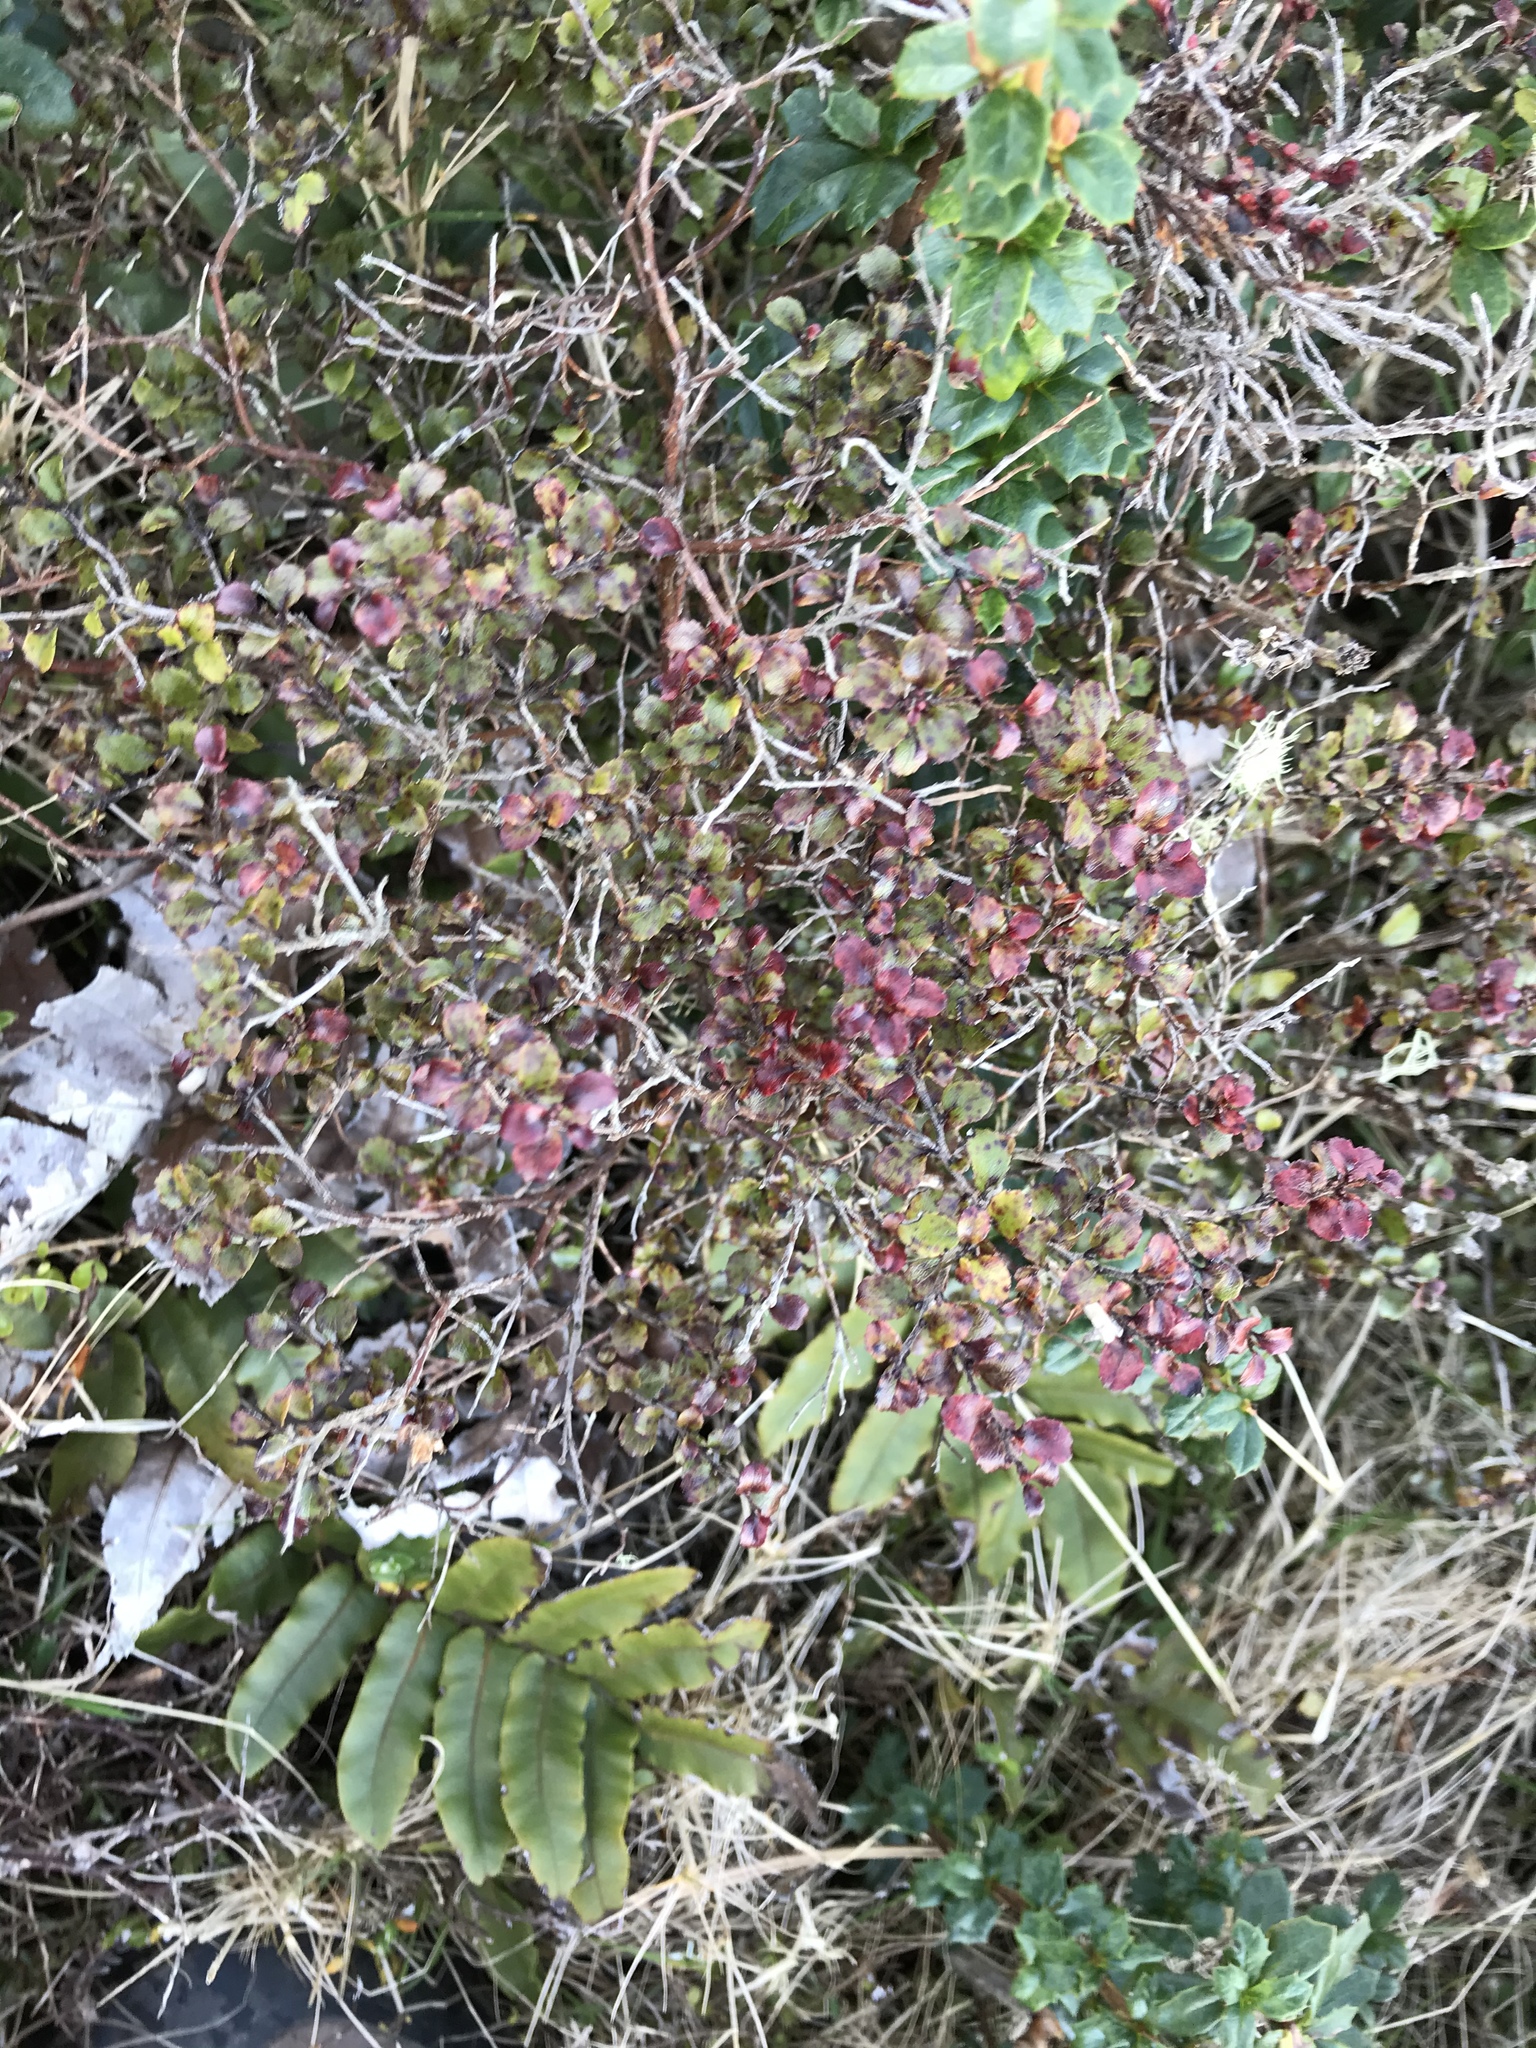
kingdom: Plantae
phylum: Tracheophyta
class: Magnoliopsida
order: Ericales
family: Ericaceae
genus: Gaultheria
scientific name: Gaultheria antipoda
